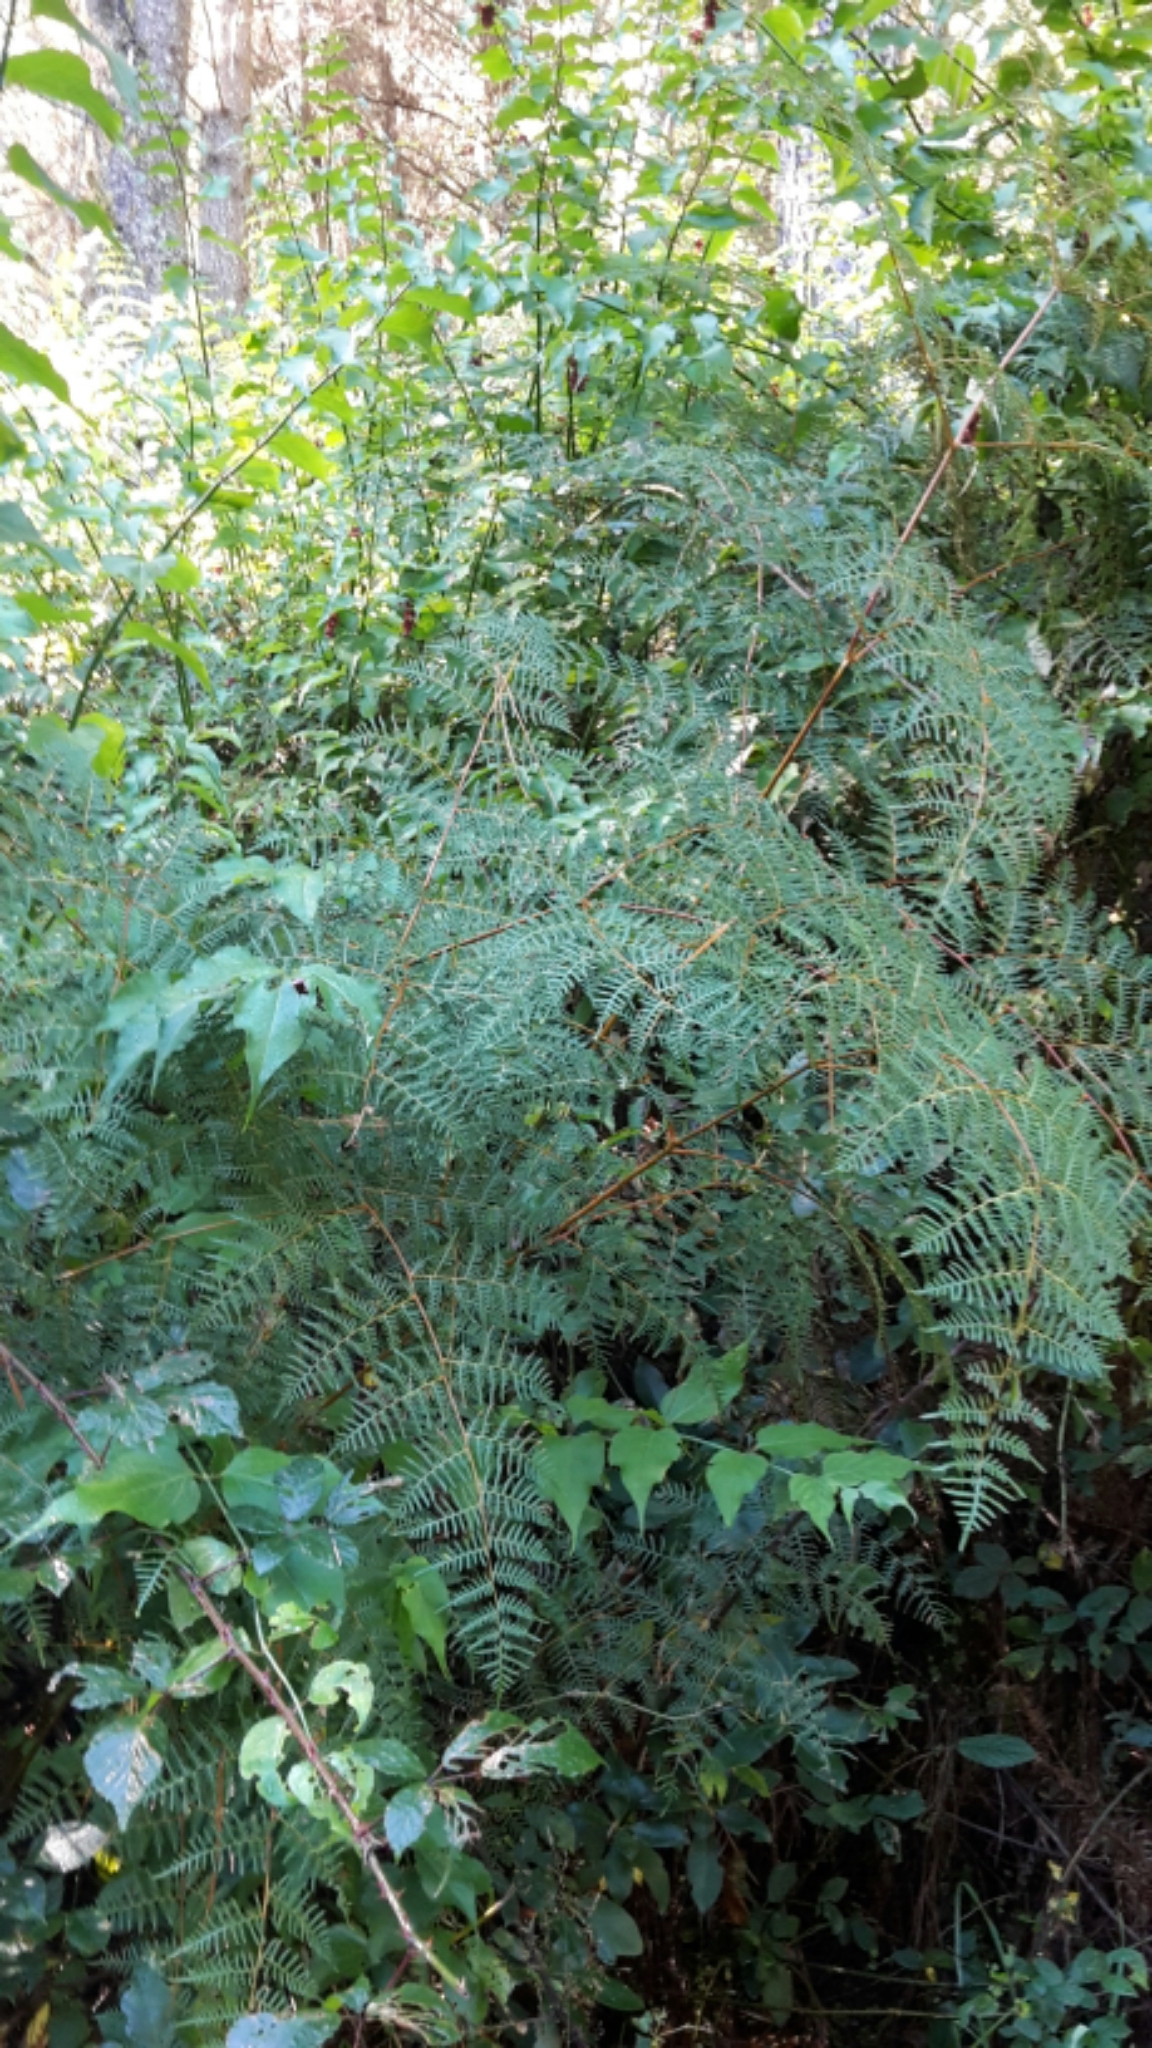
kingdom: Plantae
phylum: Tracheophyta
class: Polypodiopsida
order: Polypodiales
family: Dennstaedtiaceae
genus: Pteridium
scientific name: Pteridium esculentum
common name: Bracken fern
